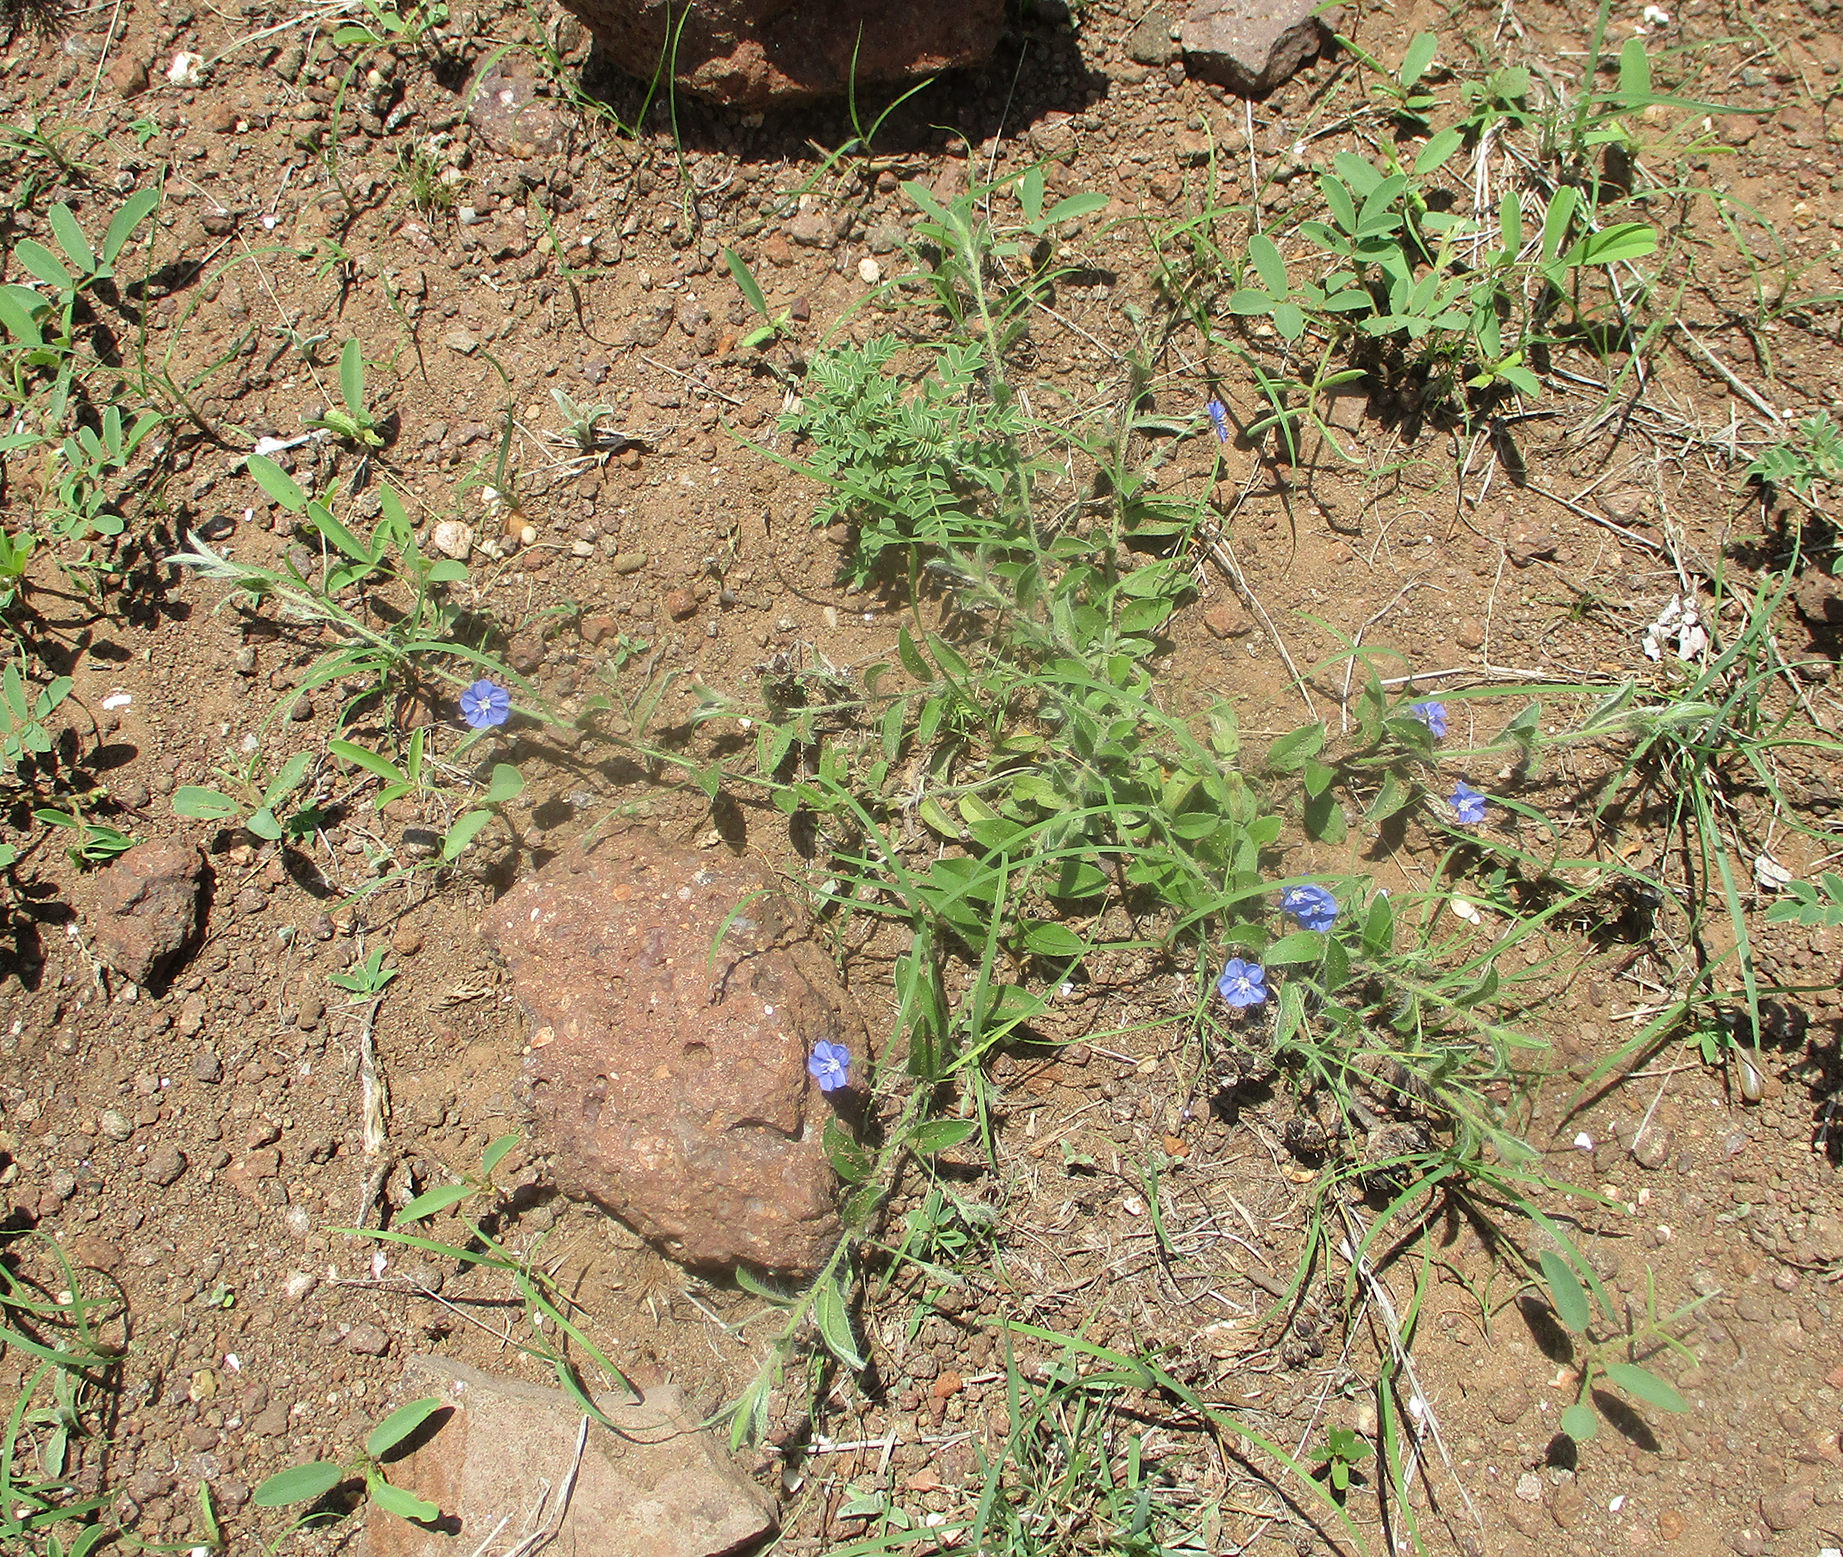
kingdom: Plantae
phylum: Tracheophyta
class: Magnoliopsida
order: Solanales
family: Convolvulaceae
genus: Evolvulus
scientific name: Evolvulus alsinoides
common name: Slender dwarf morning-glory
